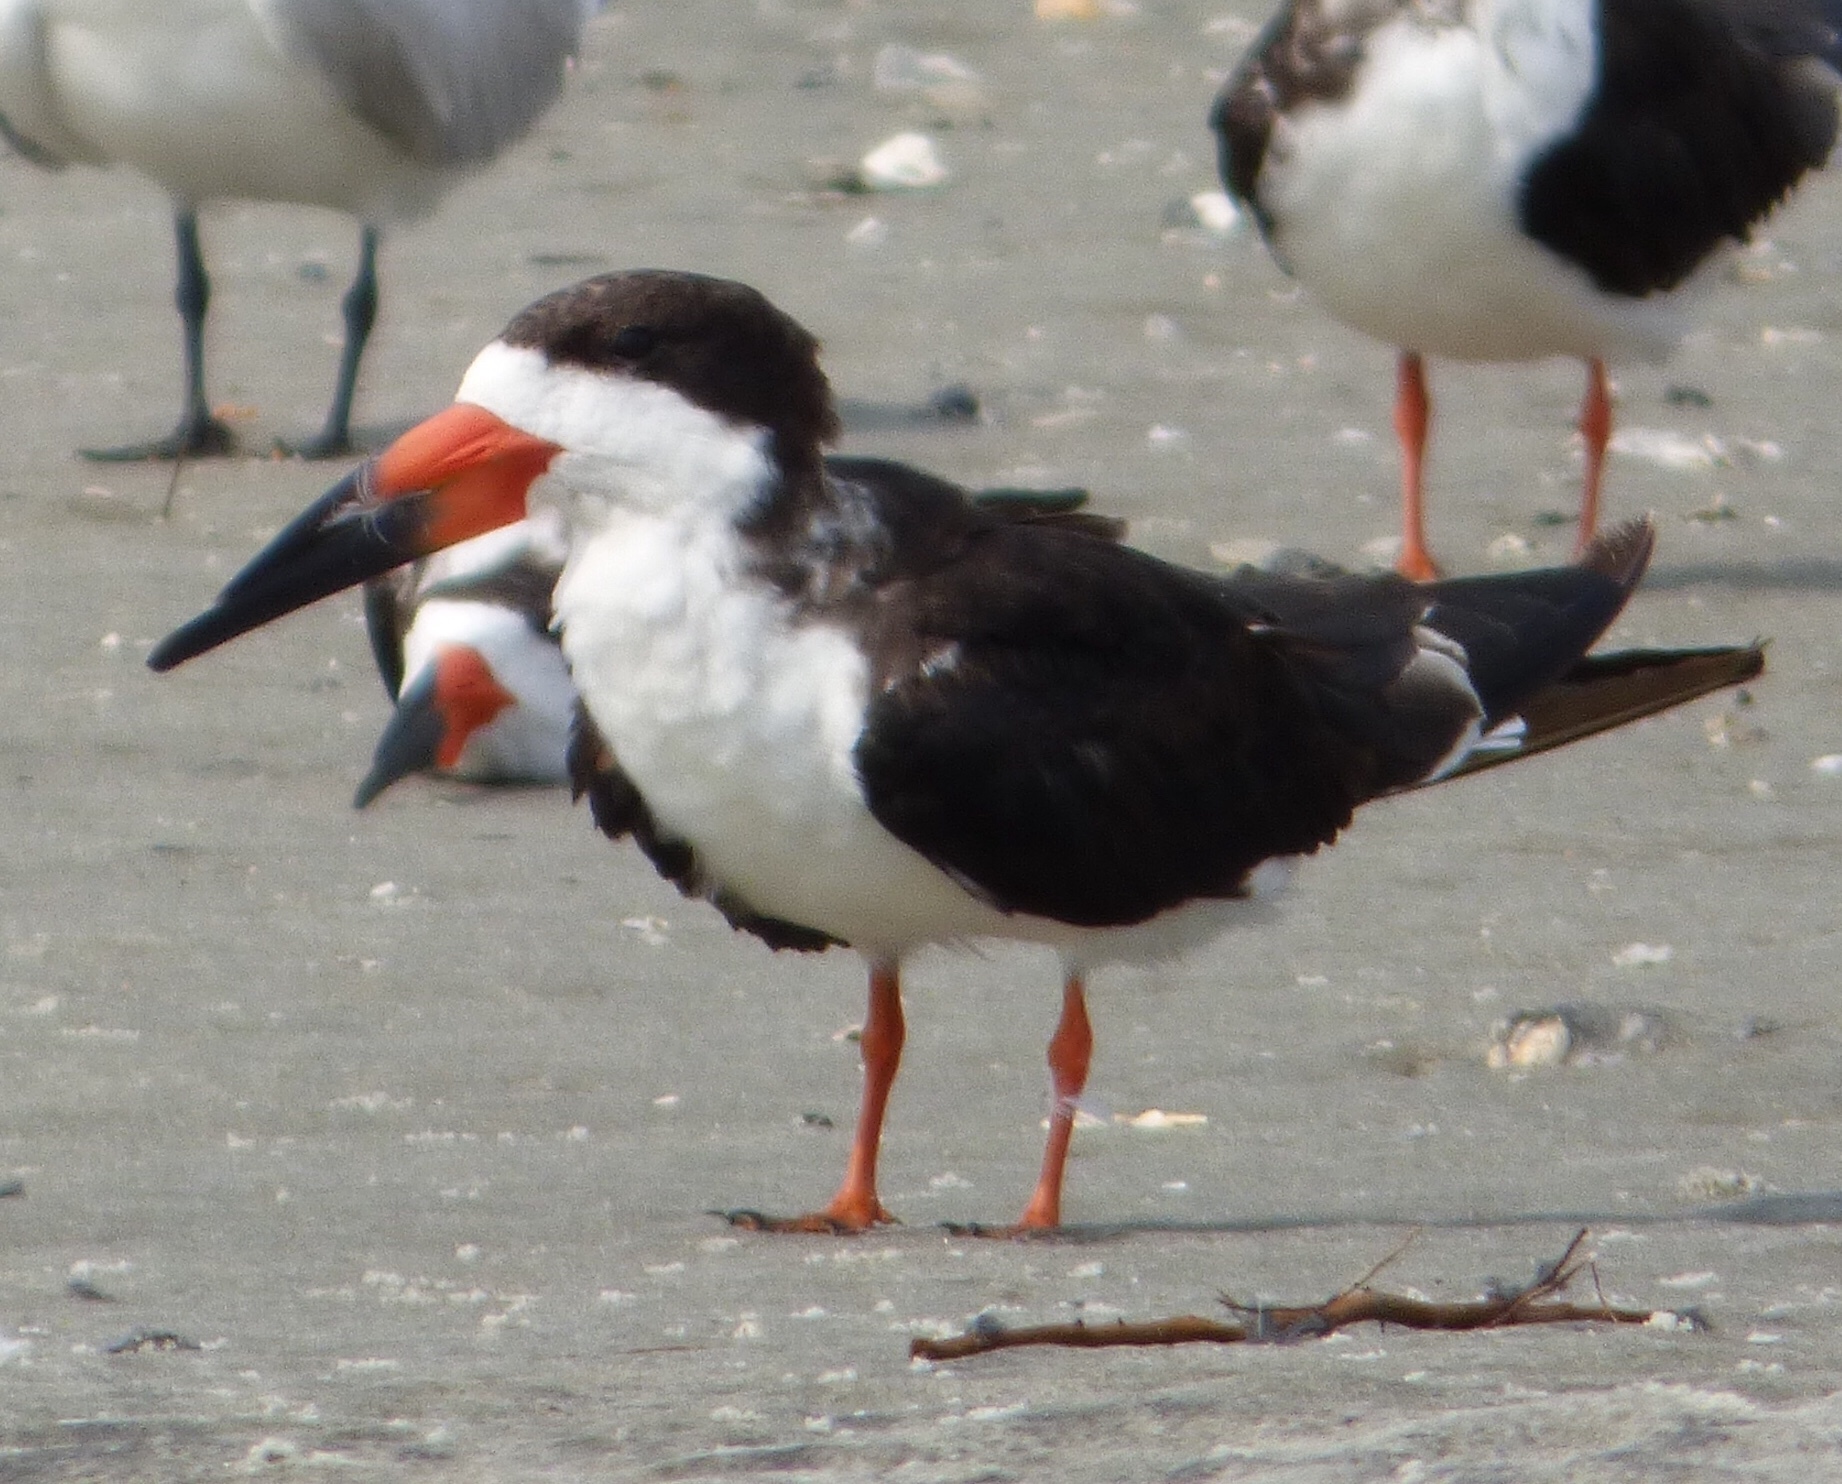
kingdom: Animalia
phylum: Chordata
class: Aves
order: Charadriiformes
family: Laridae
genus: Rynchops
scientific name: Rynchops niger
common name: Black skimmer
